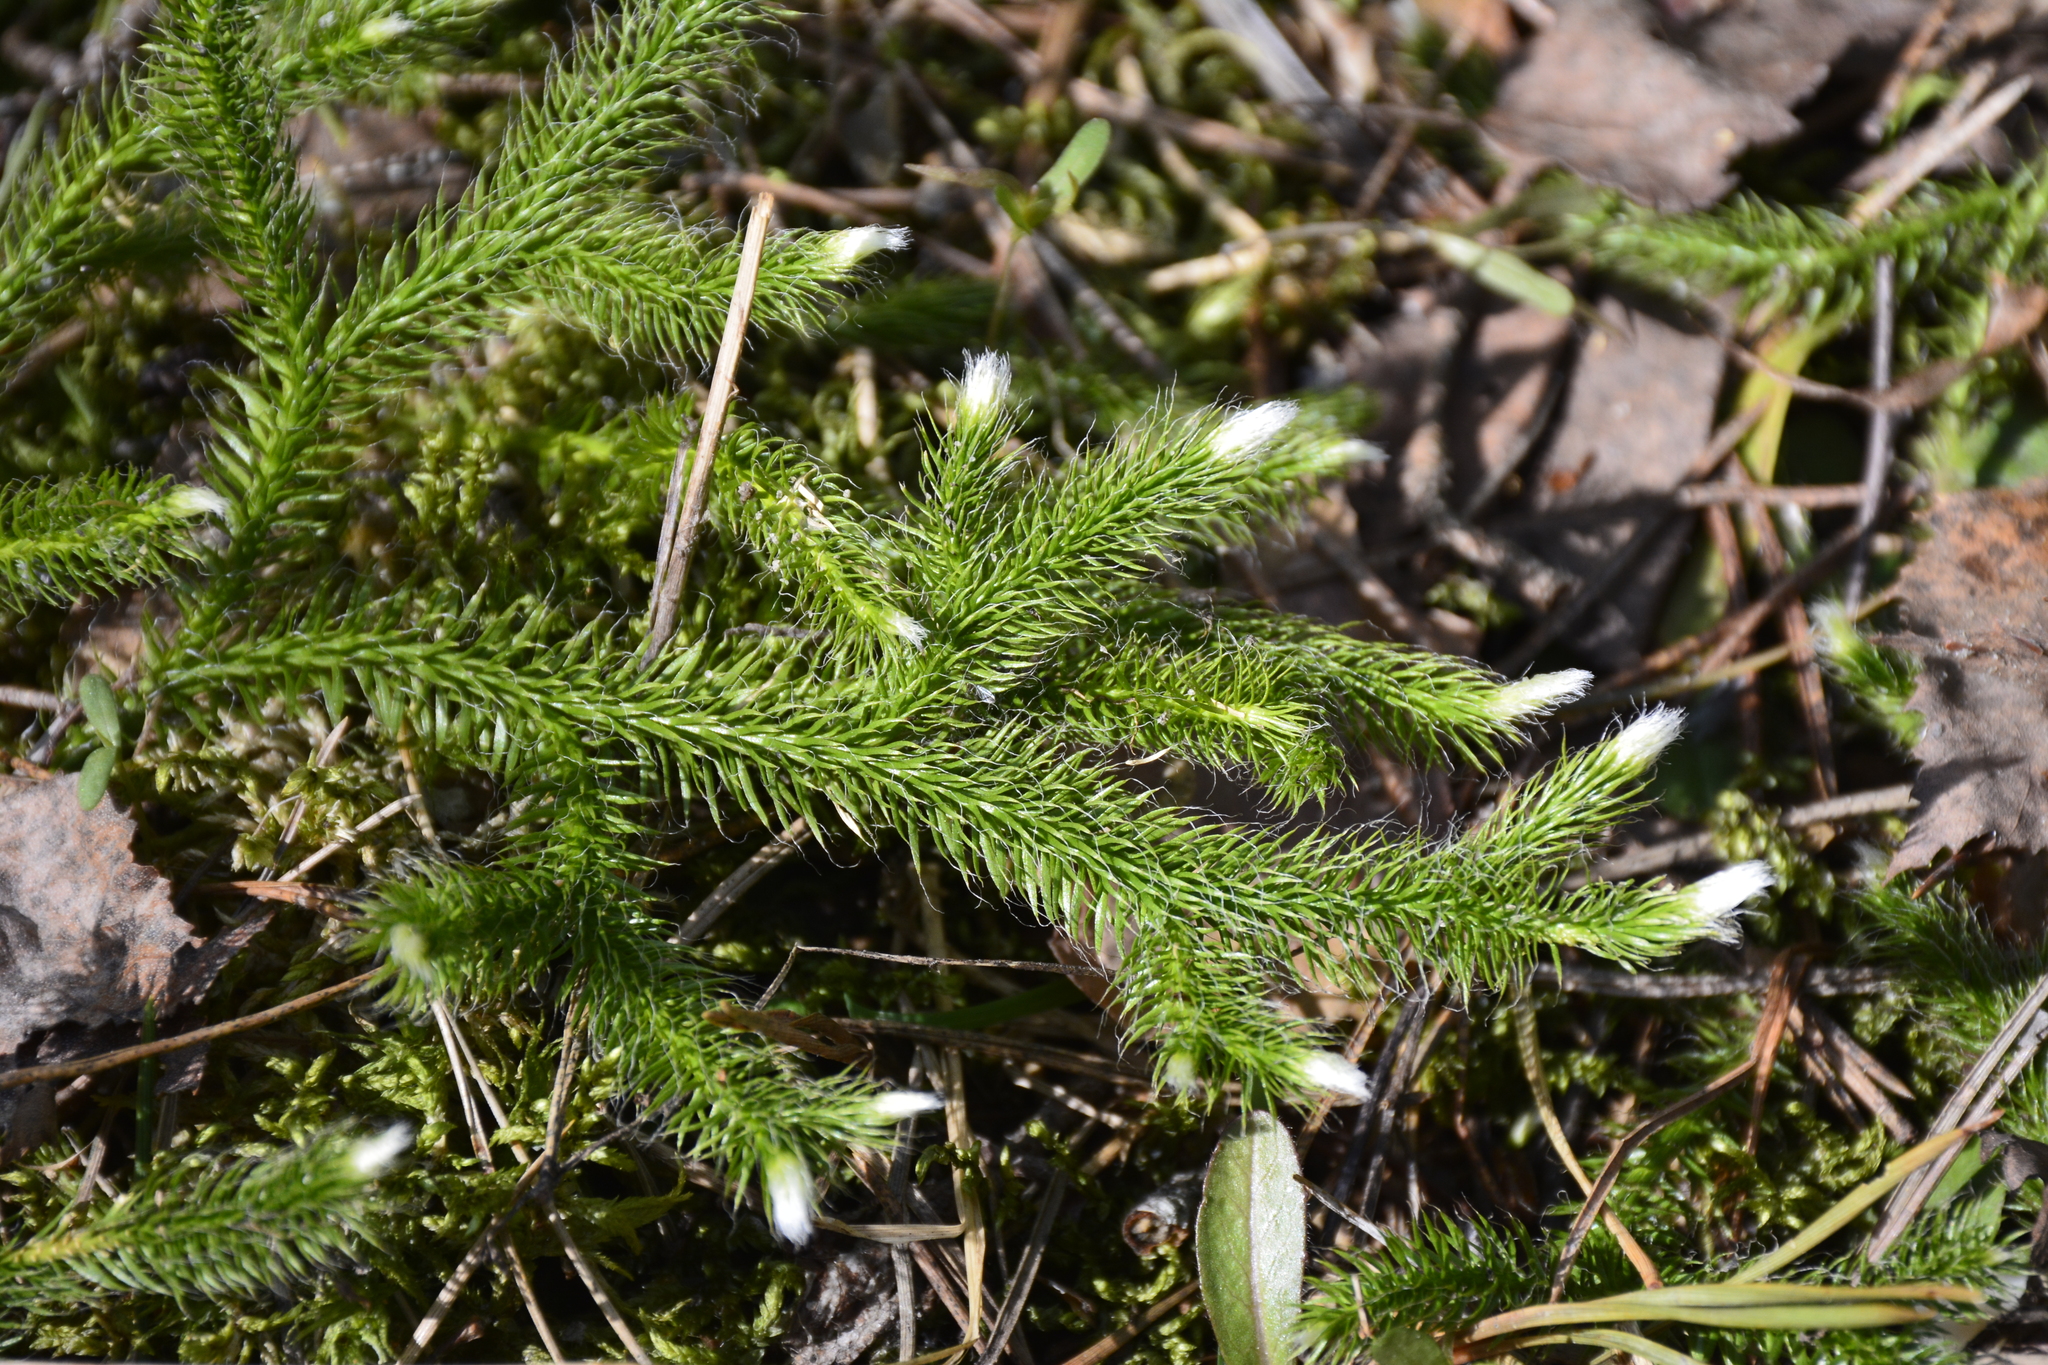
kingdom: Plantae
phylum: Tracheophyta
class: Lycopodiopsida
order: Lycopodiales
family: Lycopodiaceae
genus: Lycopodium
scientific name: Lycopodium clavatum
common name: Stag's-horn clubmoss
